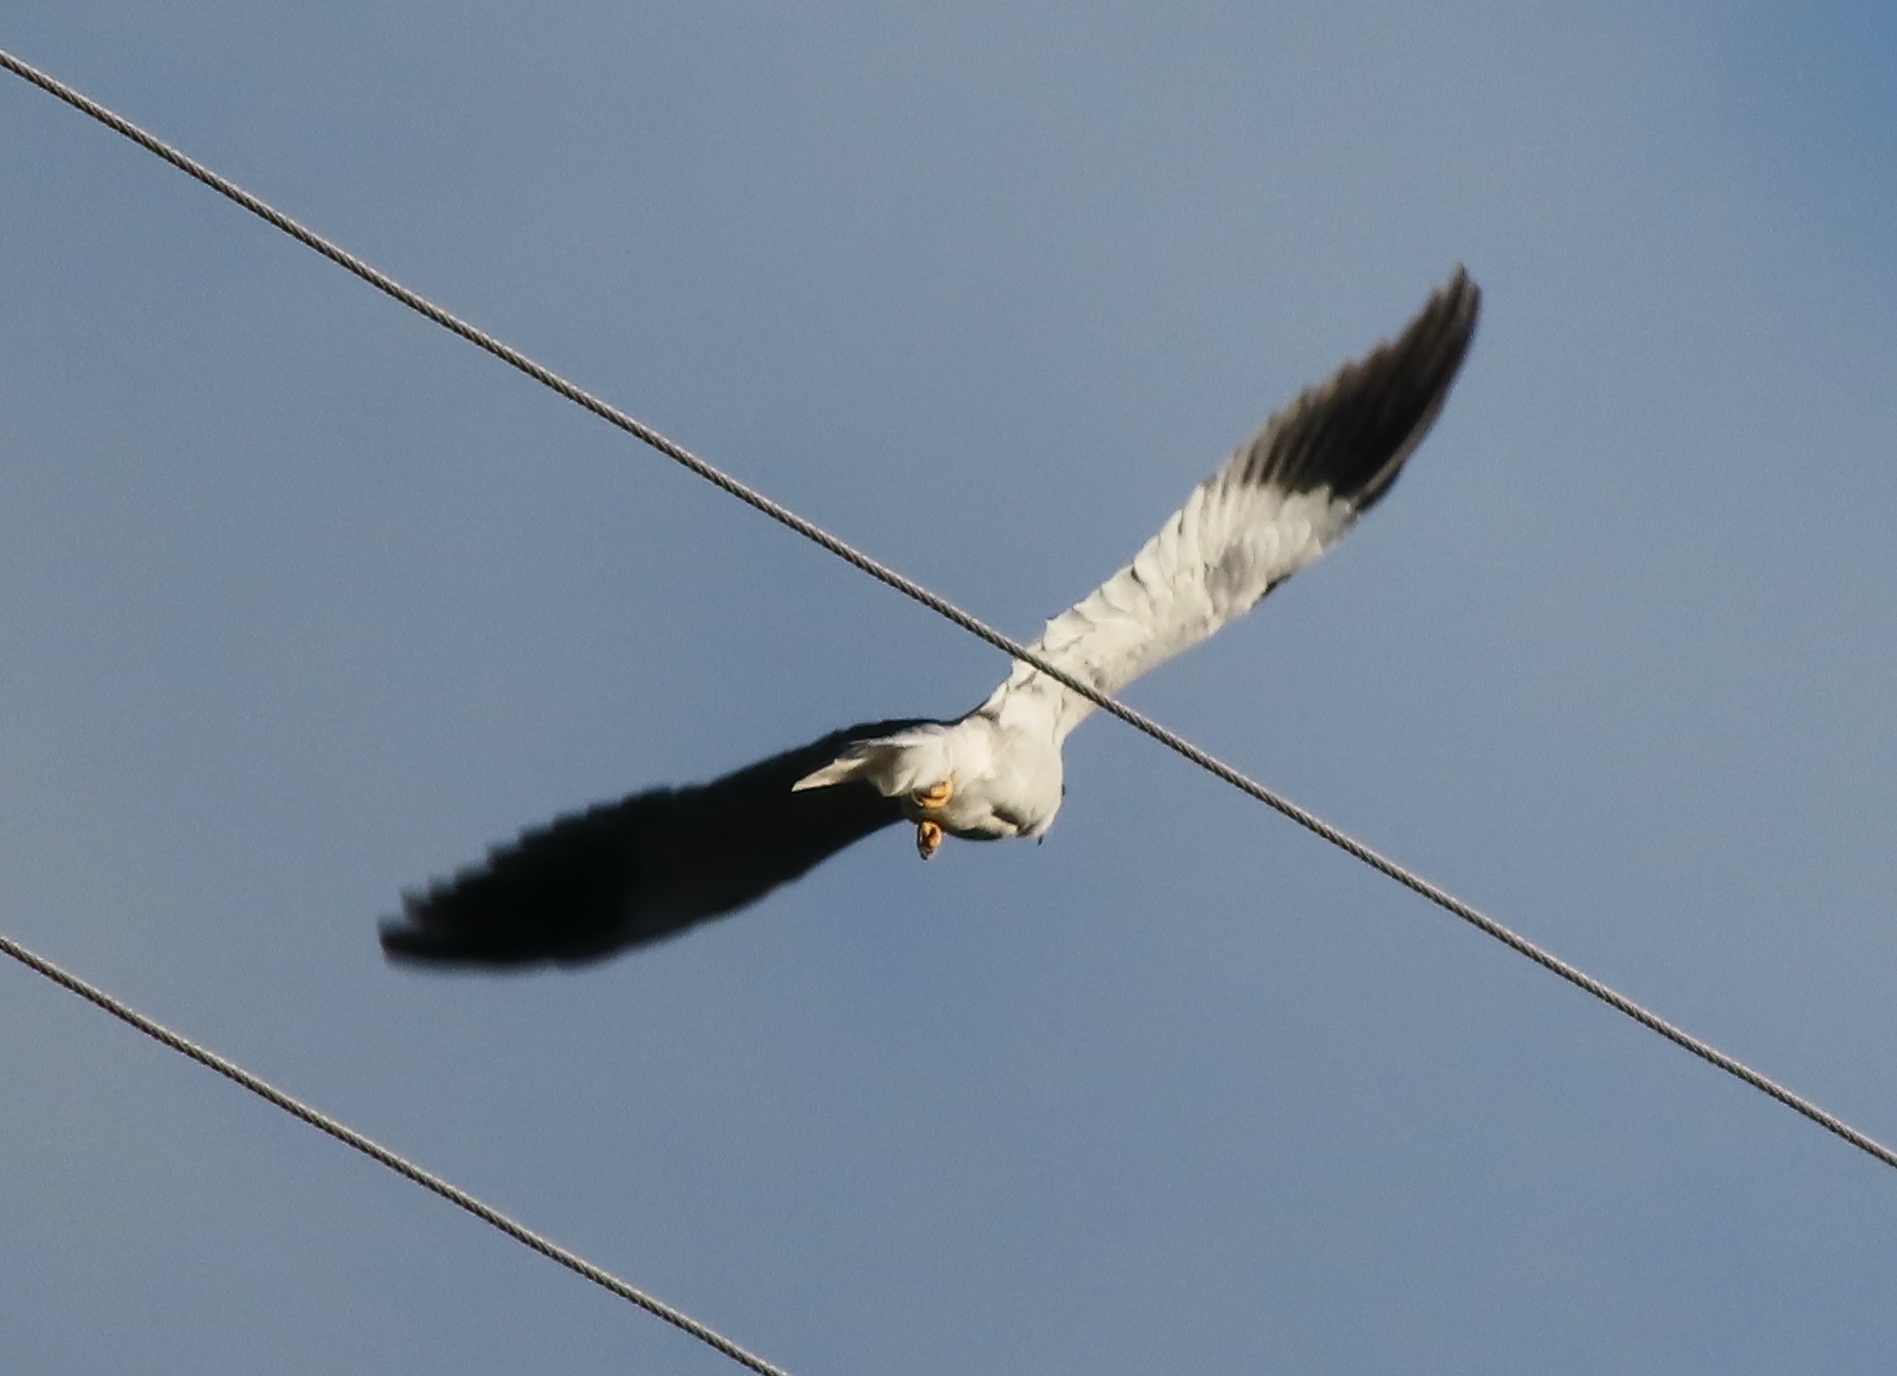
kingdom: Animalia
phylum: Chordata
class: Aves
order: Accipitriformes
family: Accipitridae
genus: Elanus
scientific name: Elanus caeruleus
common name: Black-winged kite
